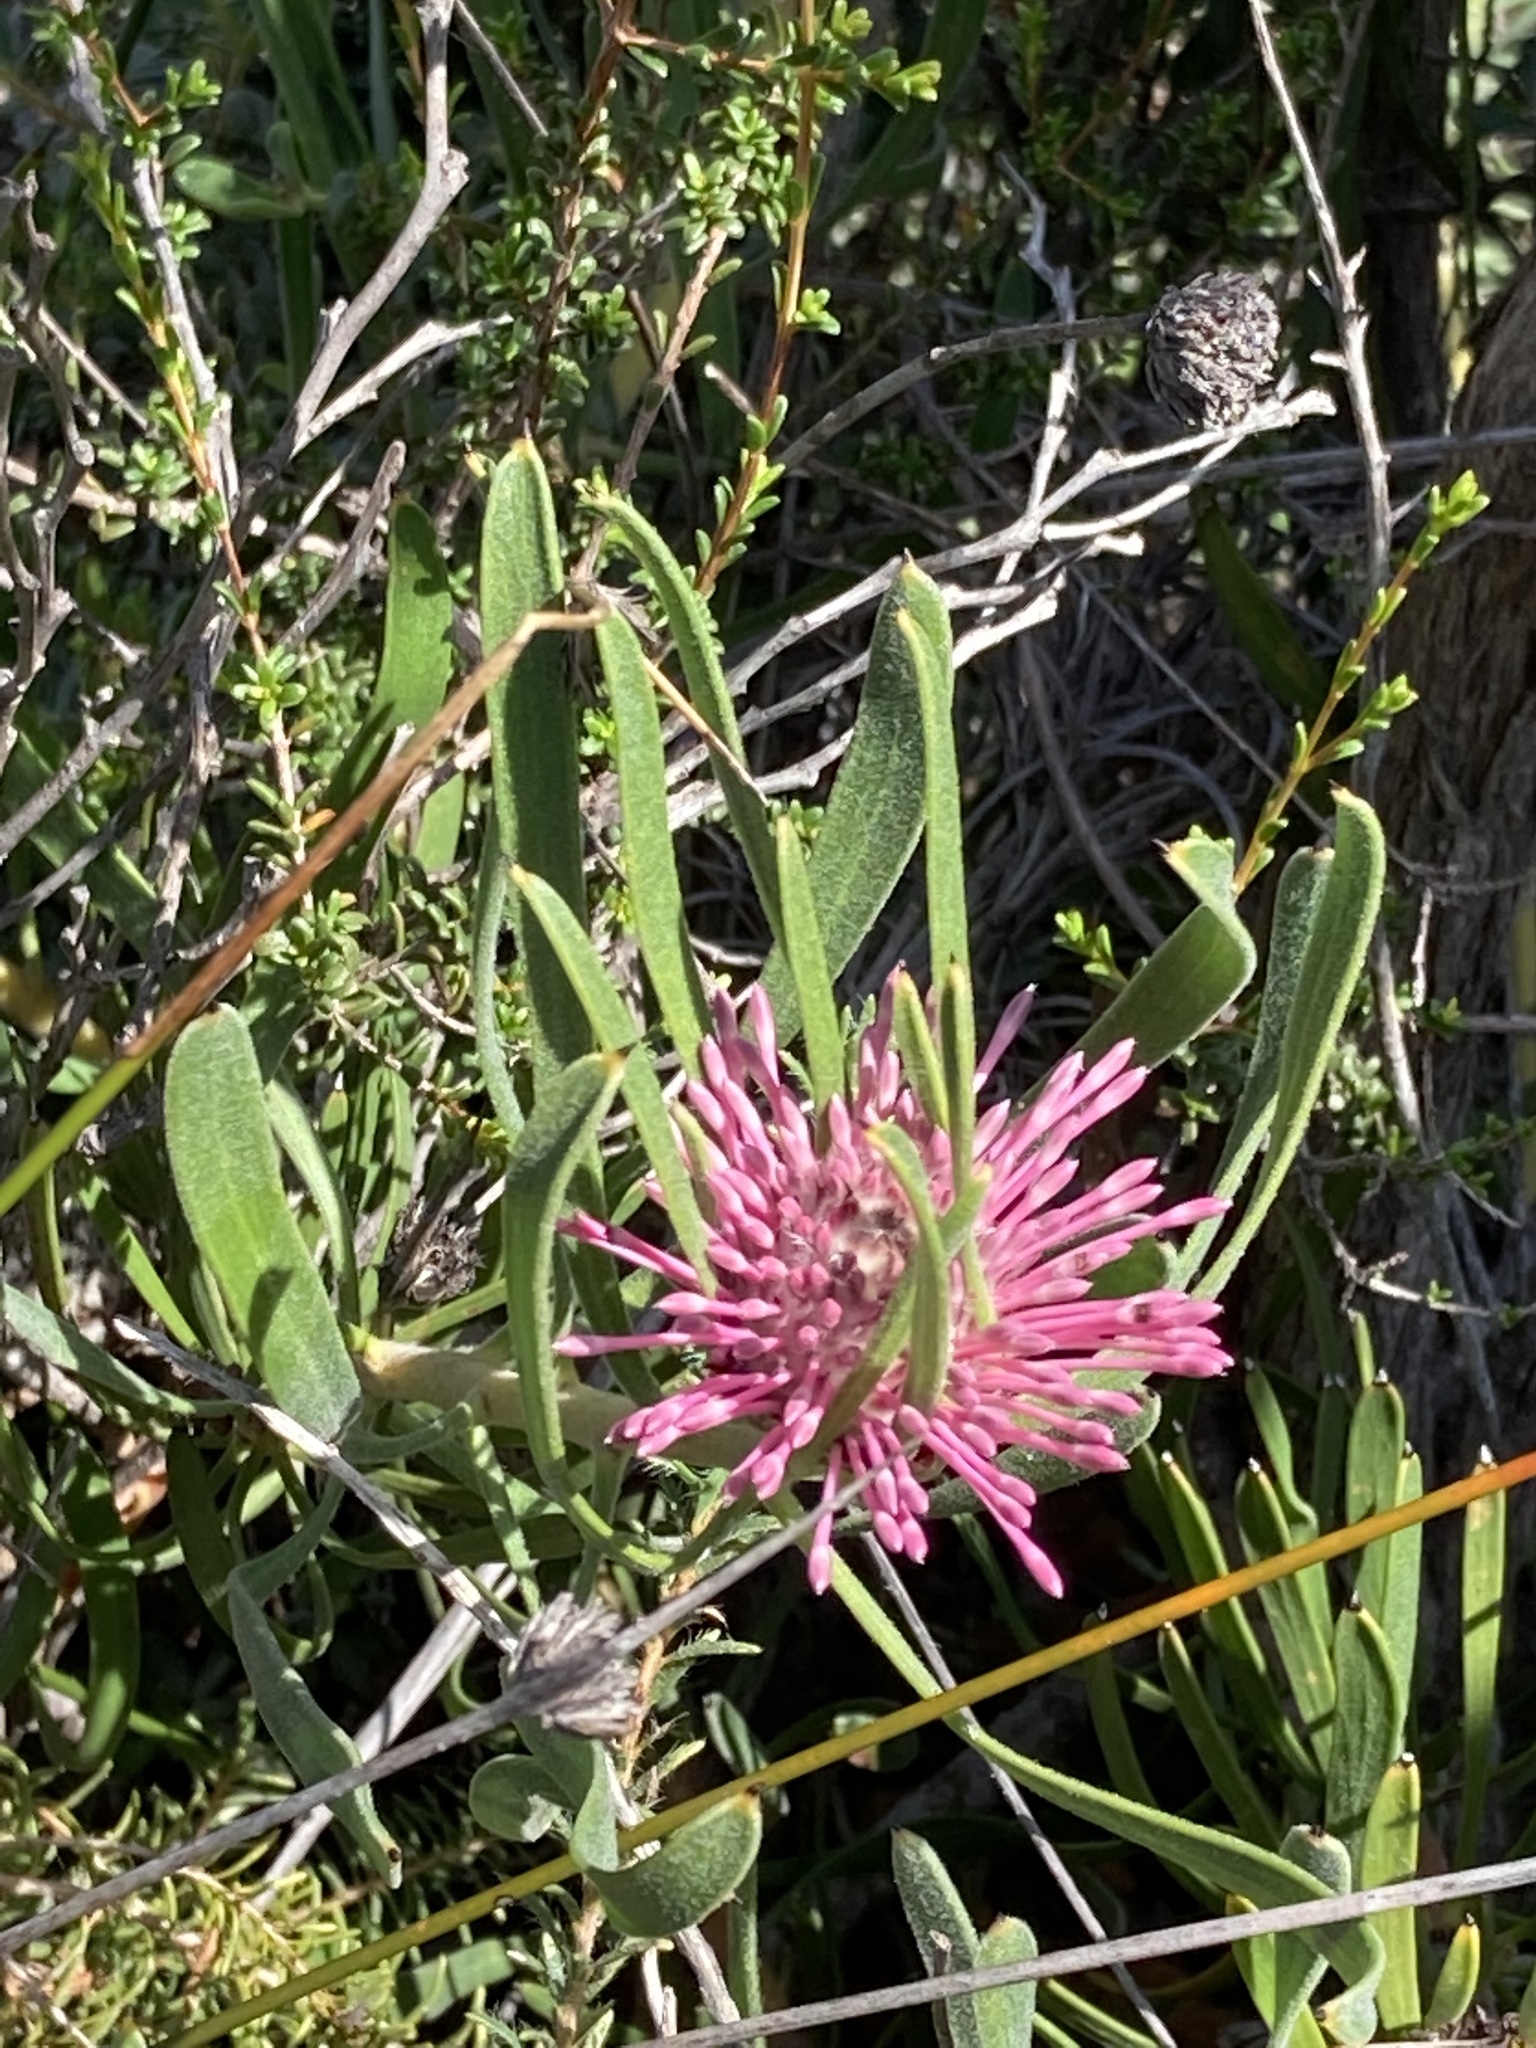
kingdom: Plantae
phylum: Tracheophyta
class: Magnoliopsida
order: Proteales
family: Proteaceae
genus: Isopogon
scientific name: Isopogon linearis
